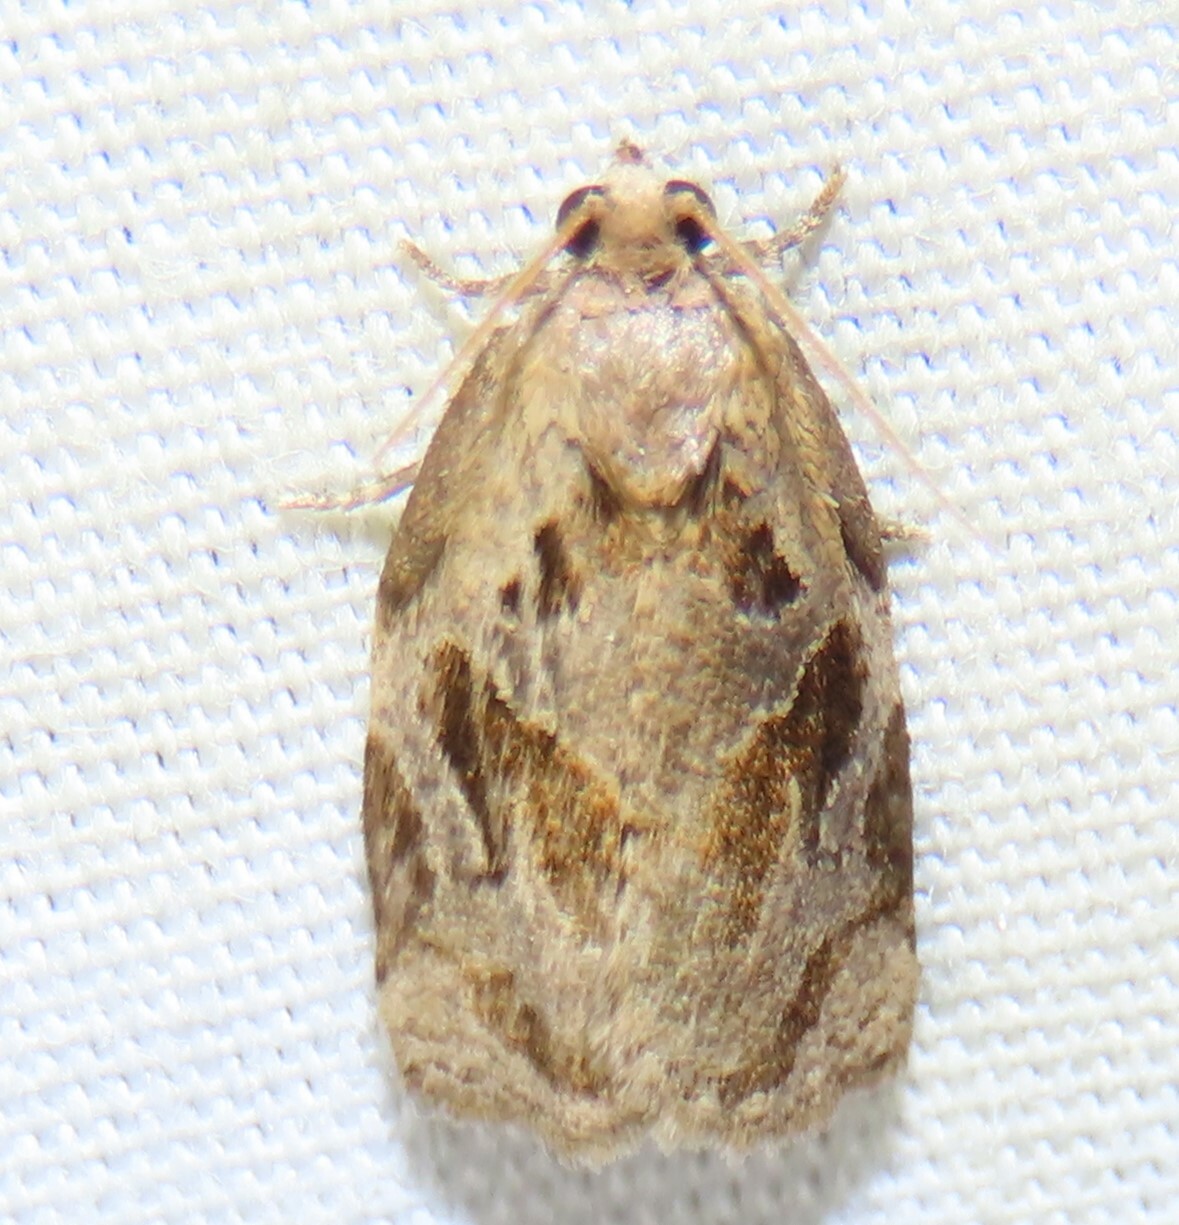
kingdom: Animalia
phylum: Arthropoda
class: Insecta
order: Lepidoptera
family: Tortricidae
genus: Archips
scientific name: Archips grisea
